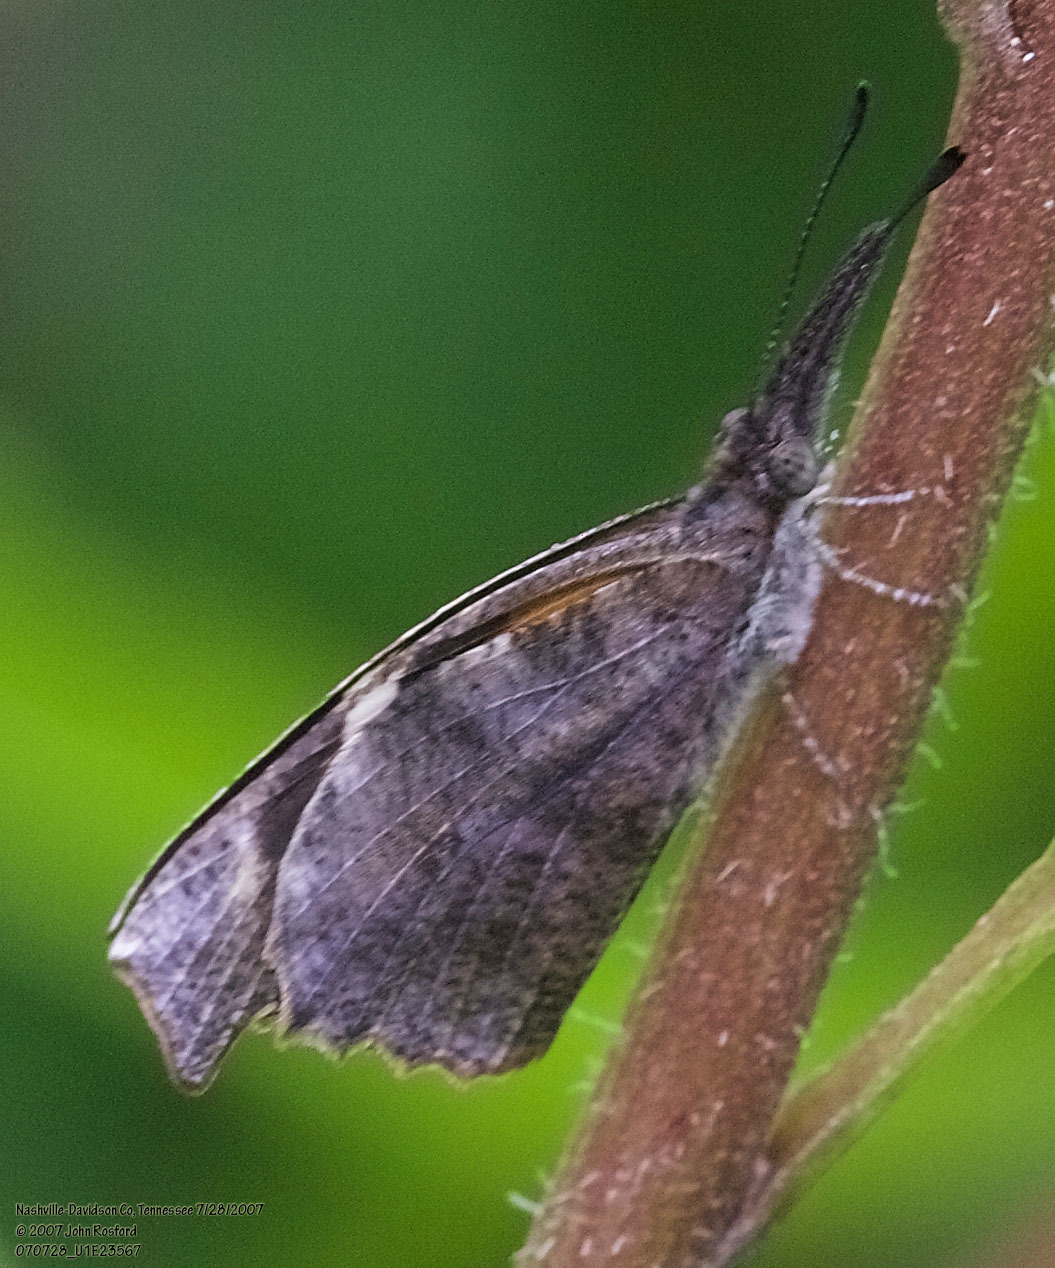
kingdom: Animalia
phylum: Arthropoda
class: Insecta
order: Lepidoptera
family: Nymphalidae
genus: Libytheana
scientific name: Libytheana carinenta
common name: American snout
